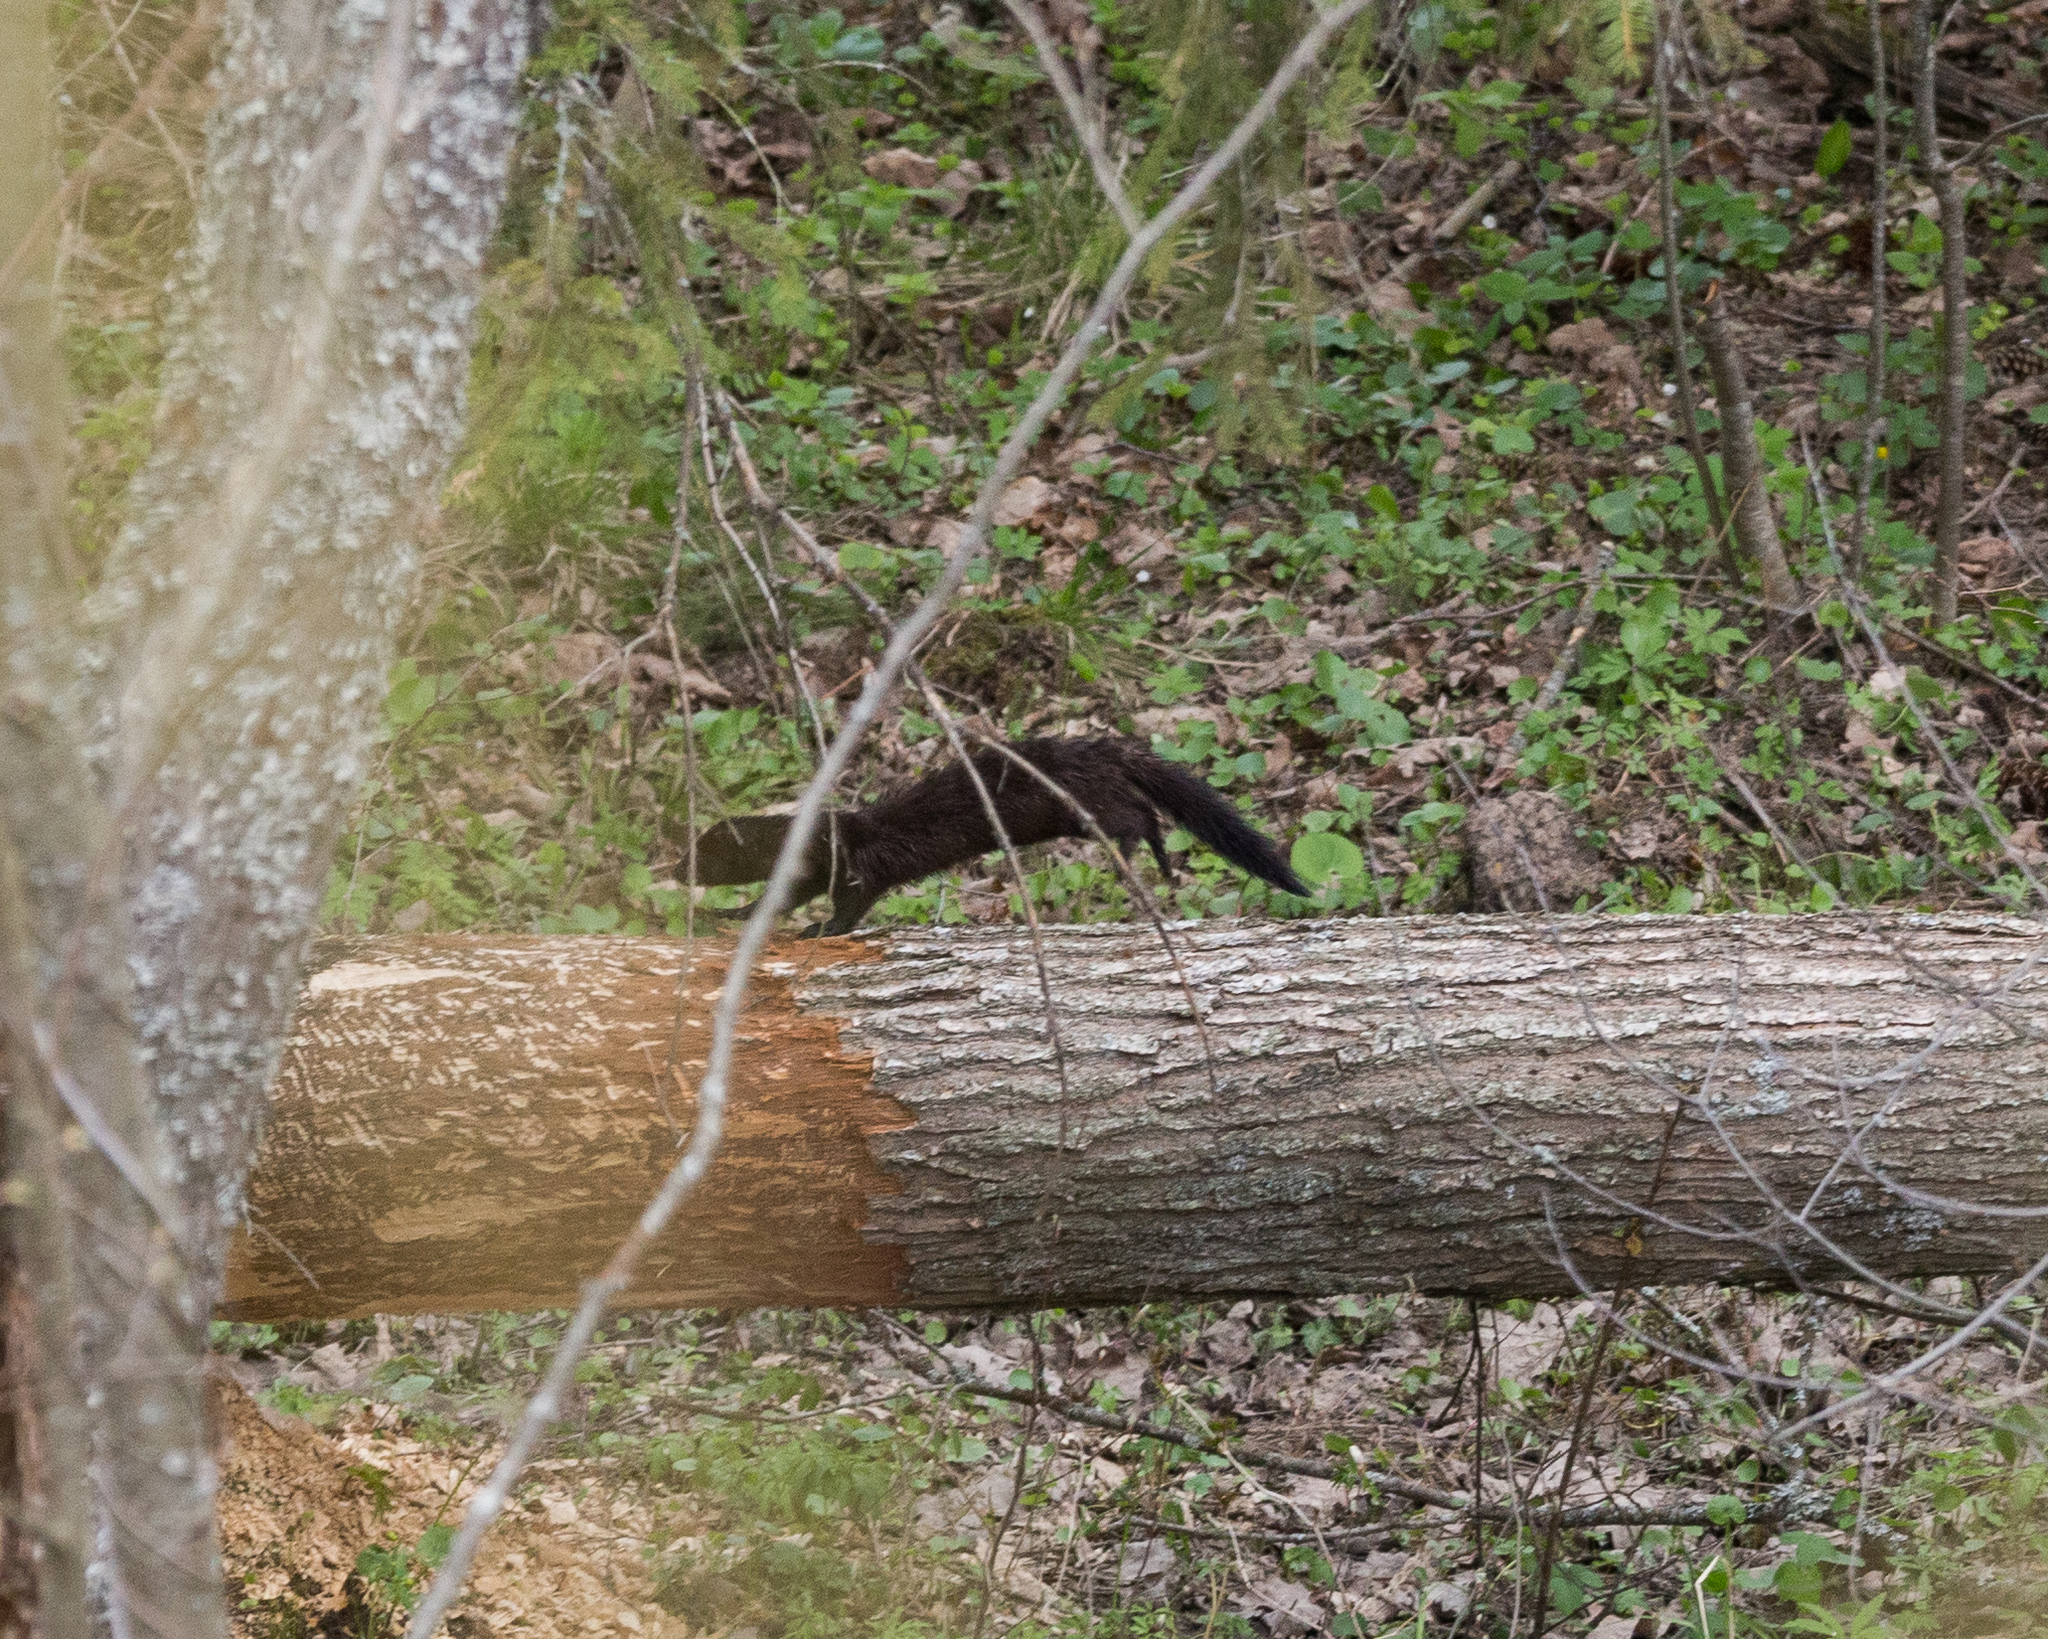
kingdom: Animalia
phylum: Chordata
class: Mammalia
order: Carnivora
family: Mustelidae
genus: Mustela
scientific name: Mustela
